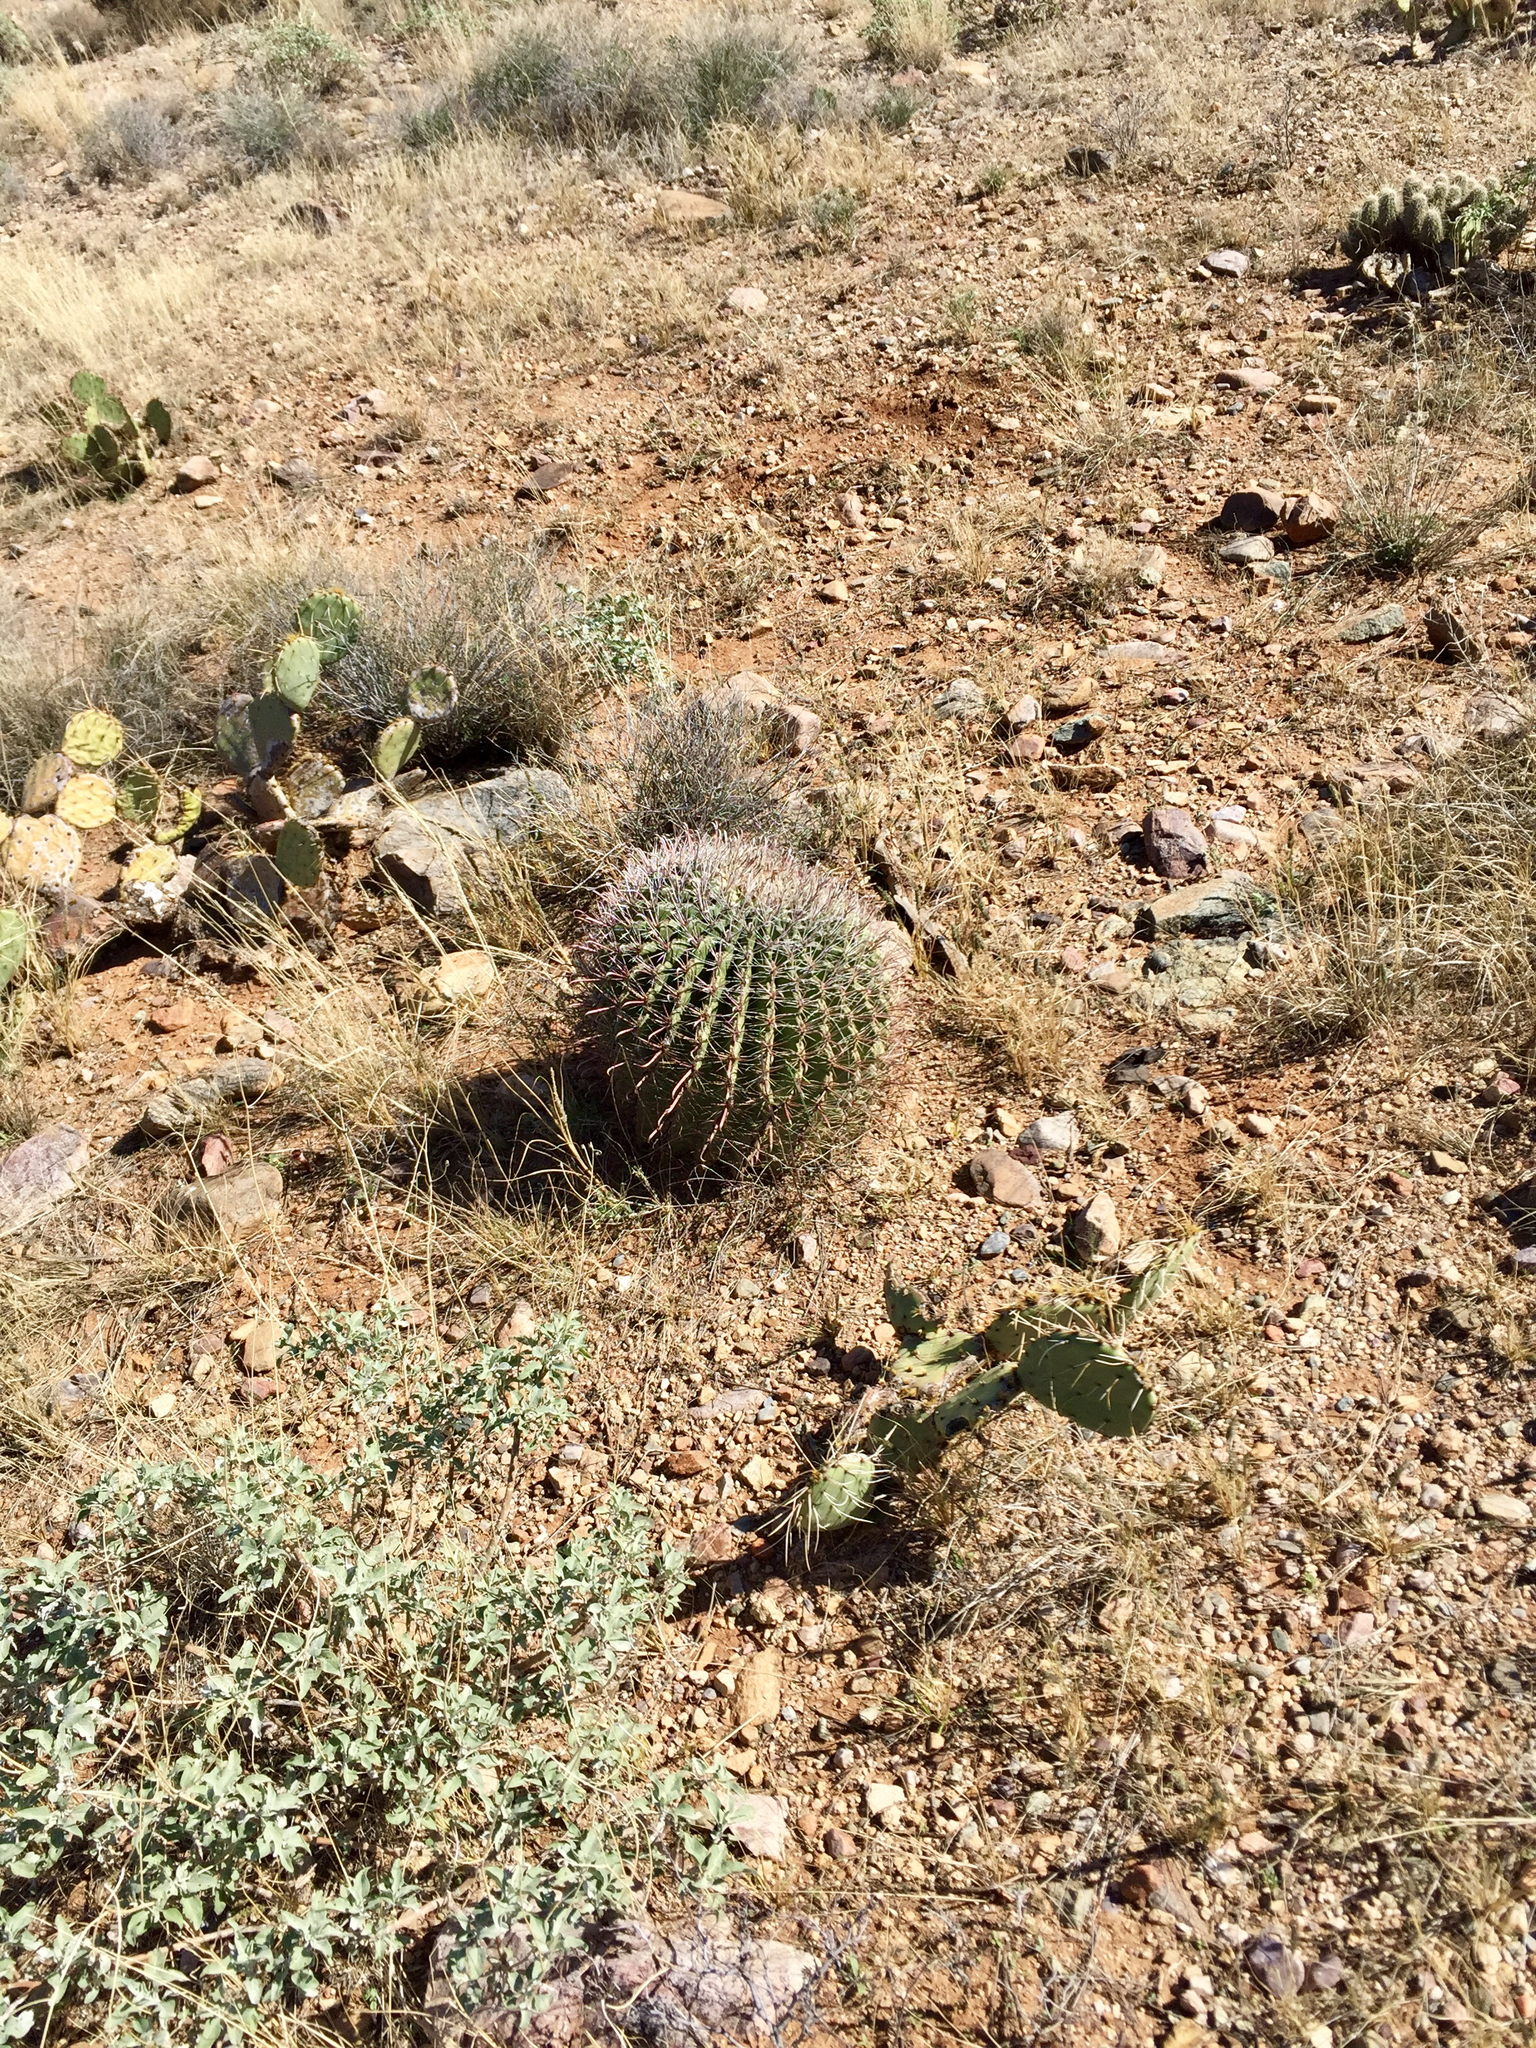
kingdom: Plantae
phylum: Tracheophyta
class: Magnoliopsida
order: Caryophyllales
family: Cactaceae
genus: Ferocactus
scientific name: Ferocactus wislizeni
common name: Candy barrel cactus
